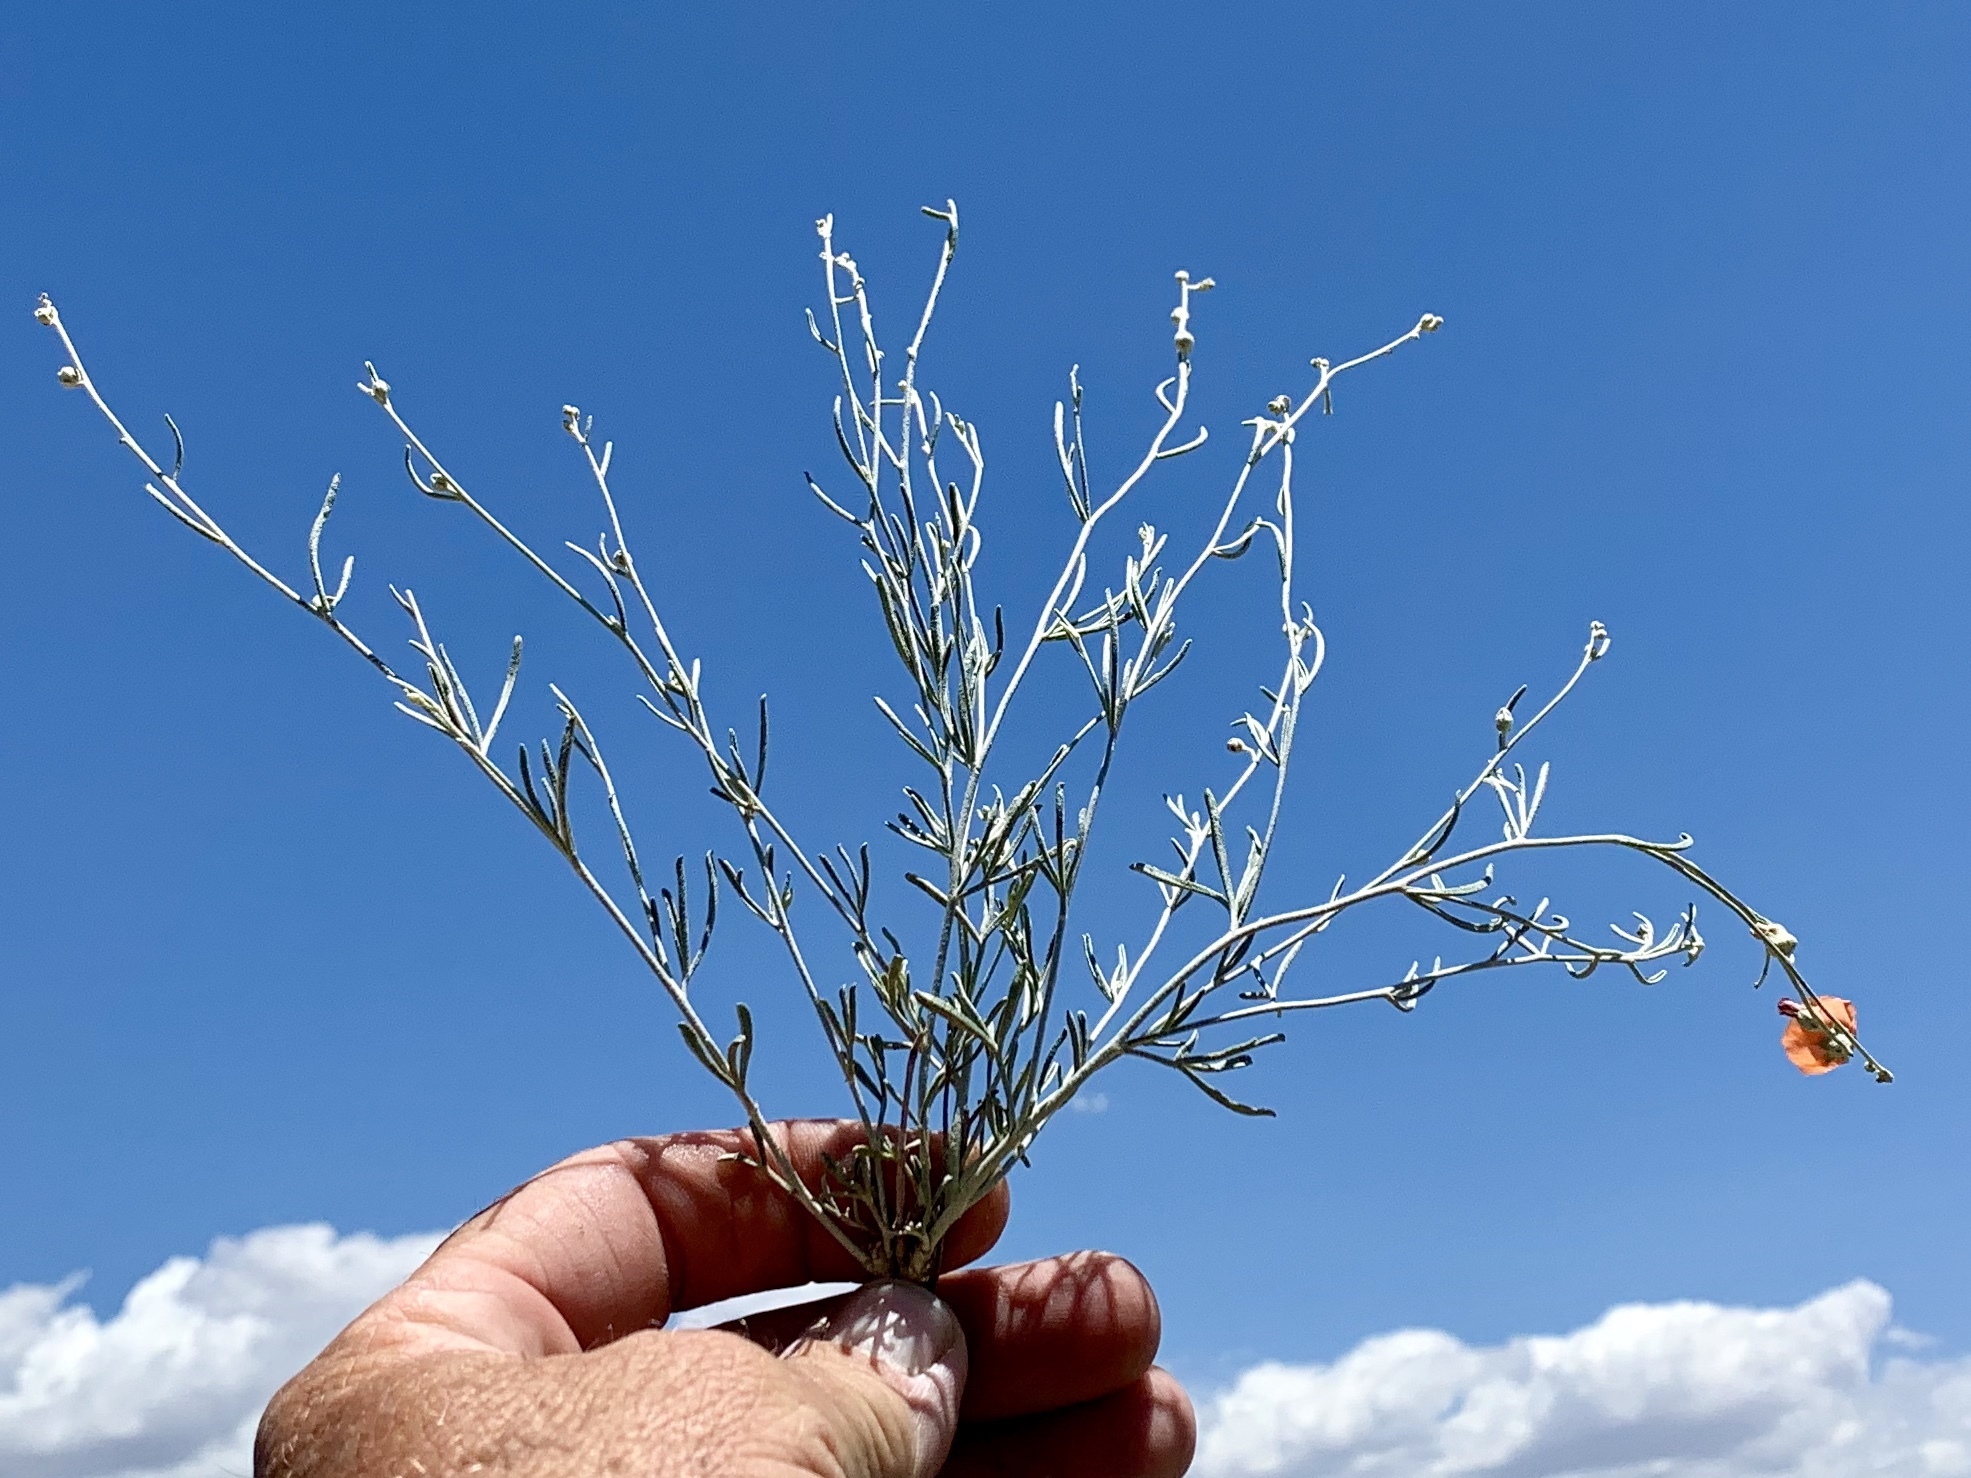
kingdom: Plantae
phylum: Tracheophyta
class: Magnoliopsida
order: Malvales
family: Malvaceae
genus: Sphaeralcea
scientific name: Sphaeralcea leptophylla
